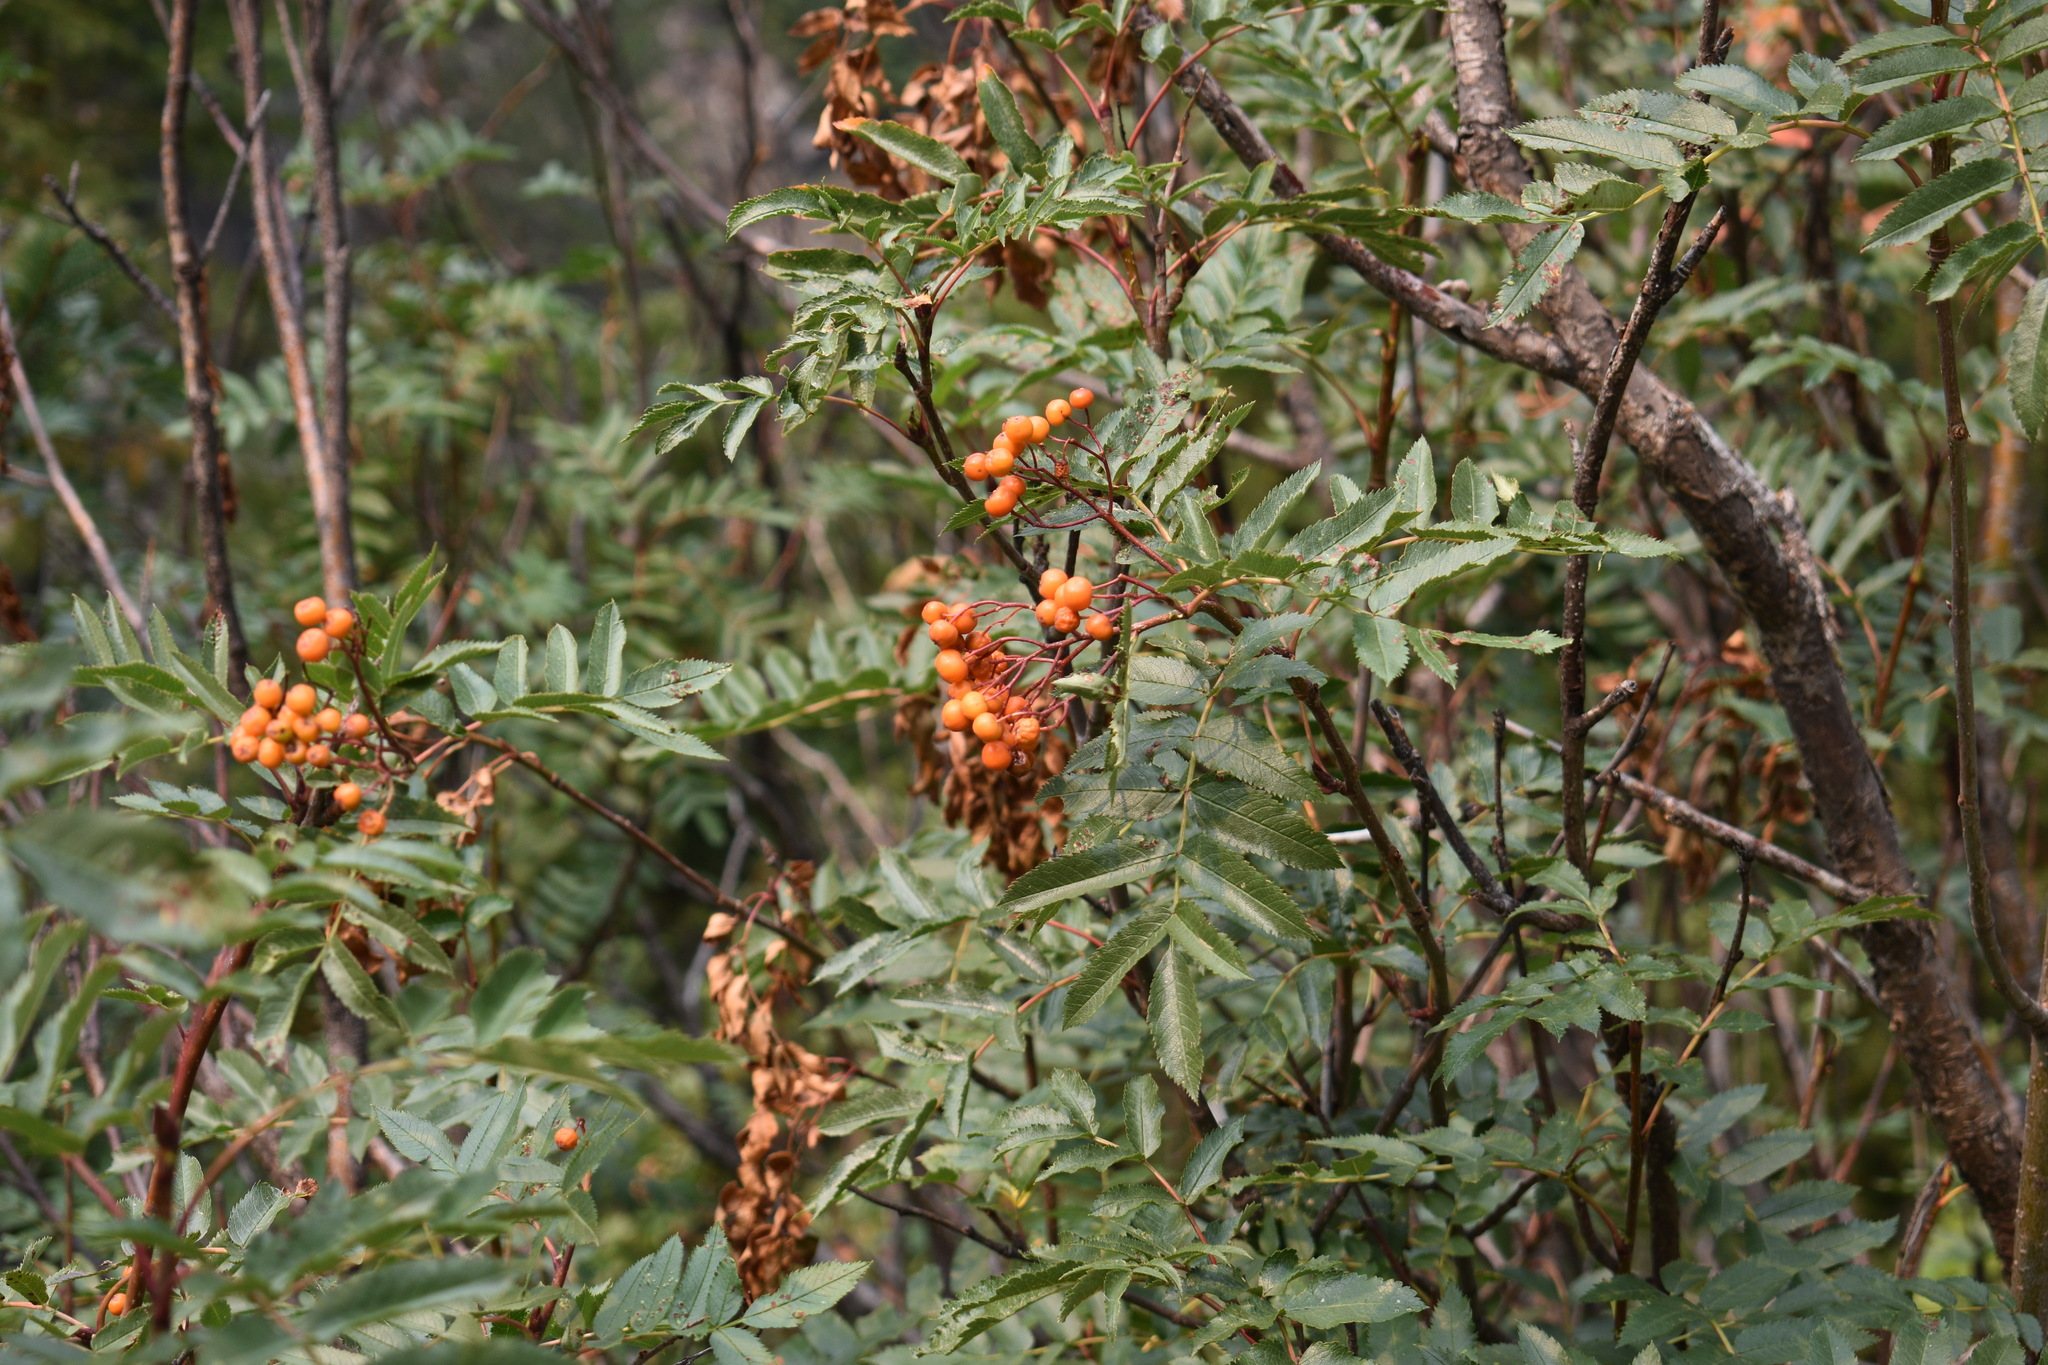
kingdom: Plantae
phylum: Tracheophyta
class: Magnoliopsida
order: Rosales
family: Rosaceae
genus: Sorbus
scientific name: Sorbus scopulina
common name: Greene's mountain-ash
